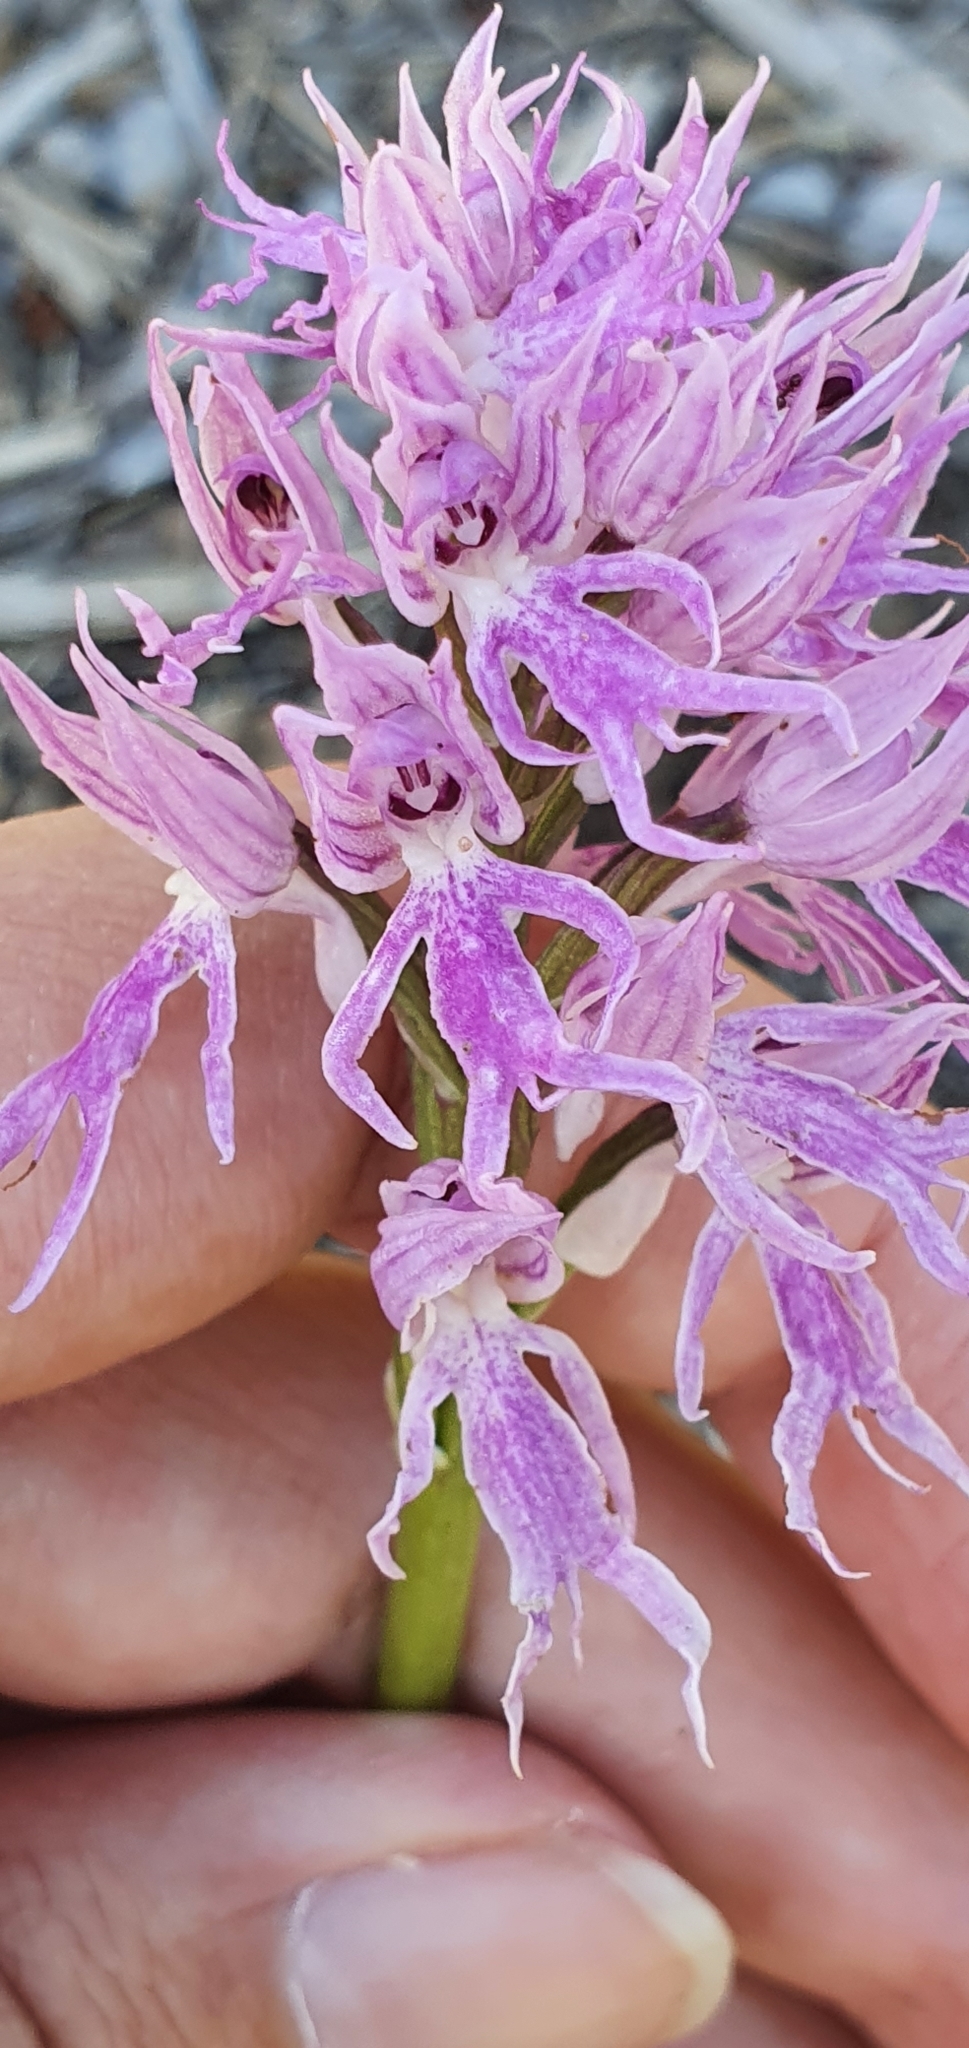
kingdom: Plantae
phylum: Tracheophyta
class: Liliopsida
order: Asparagales
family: Orchidaceae
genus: Orchis
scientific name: Orchis italica
